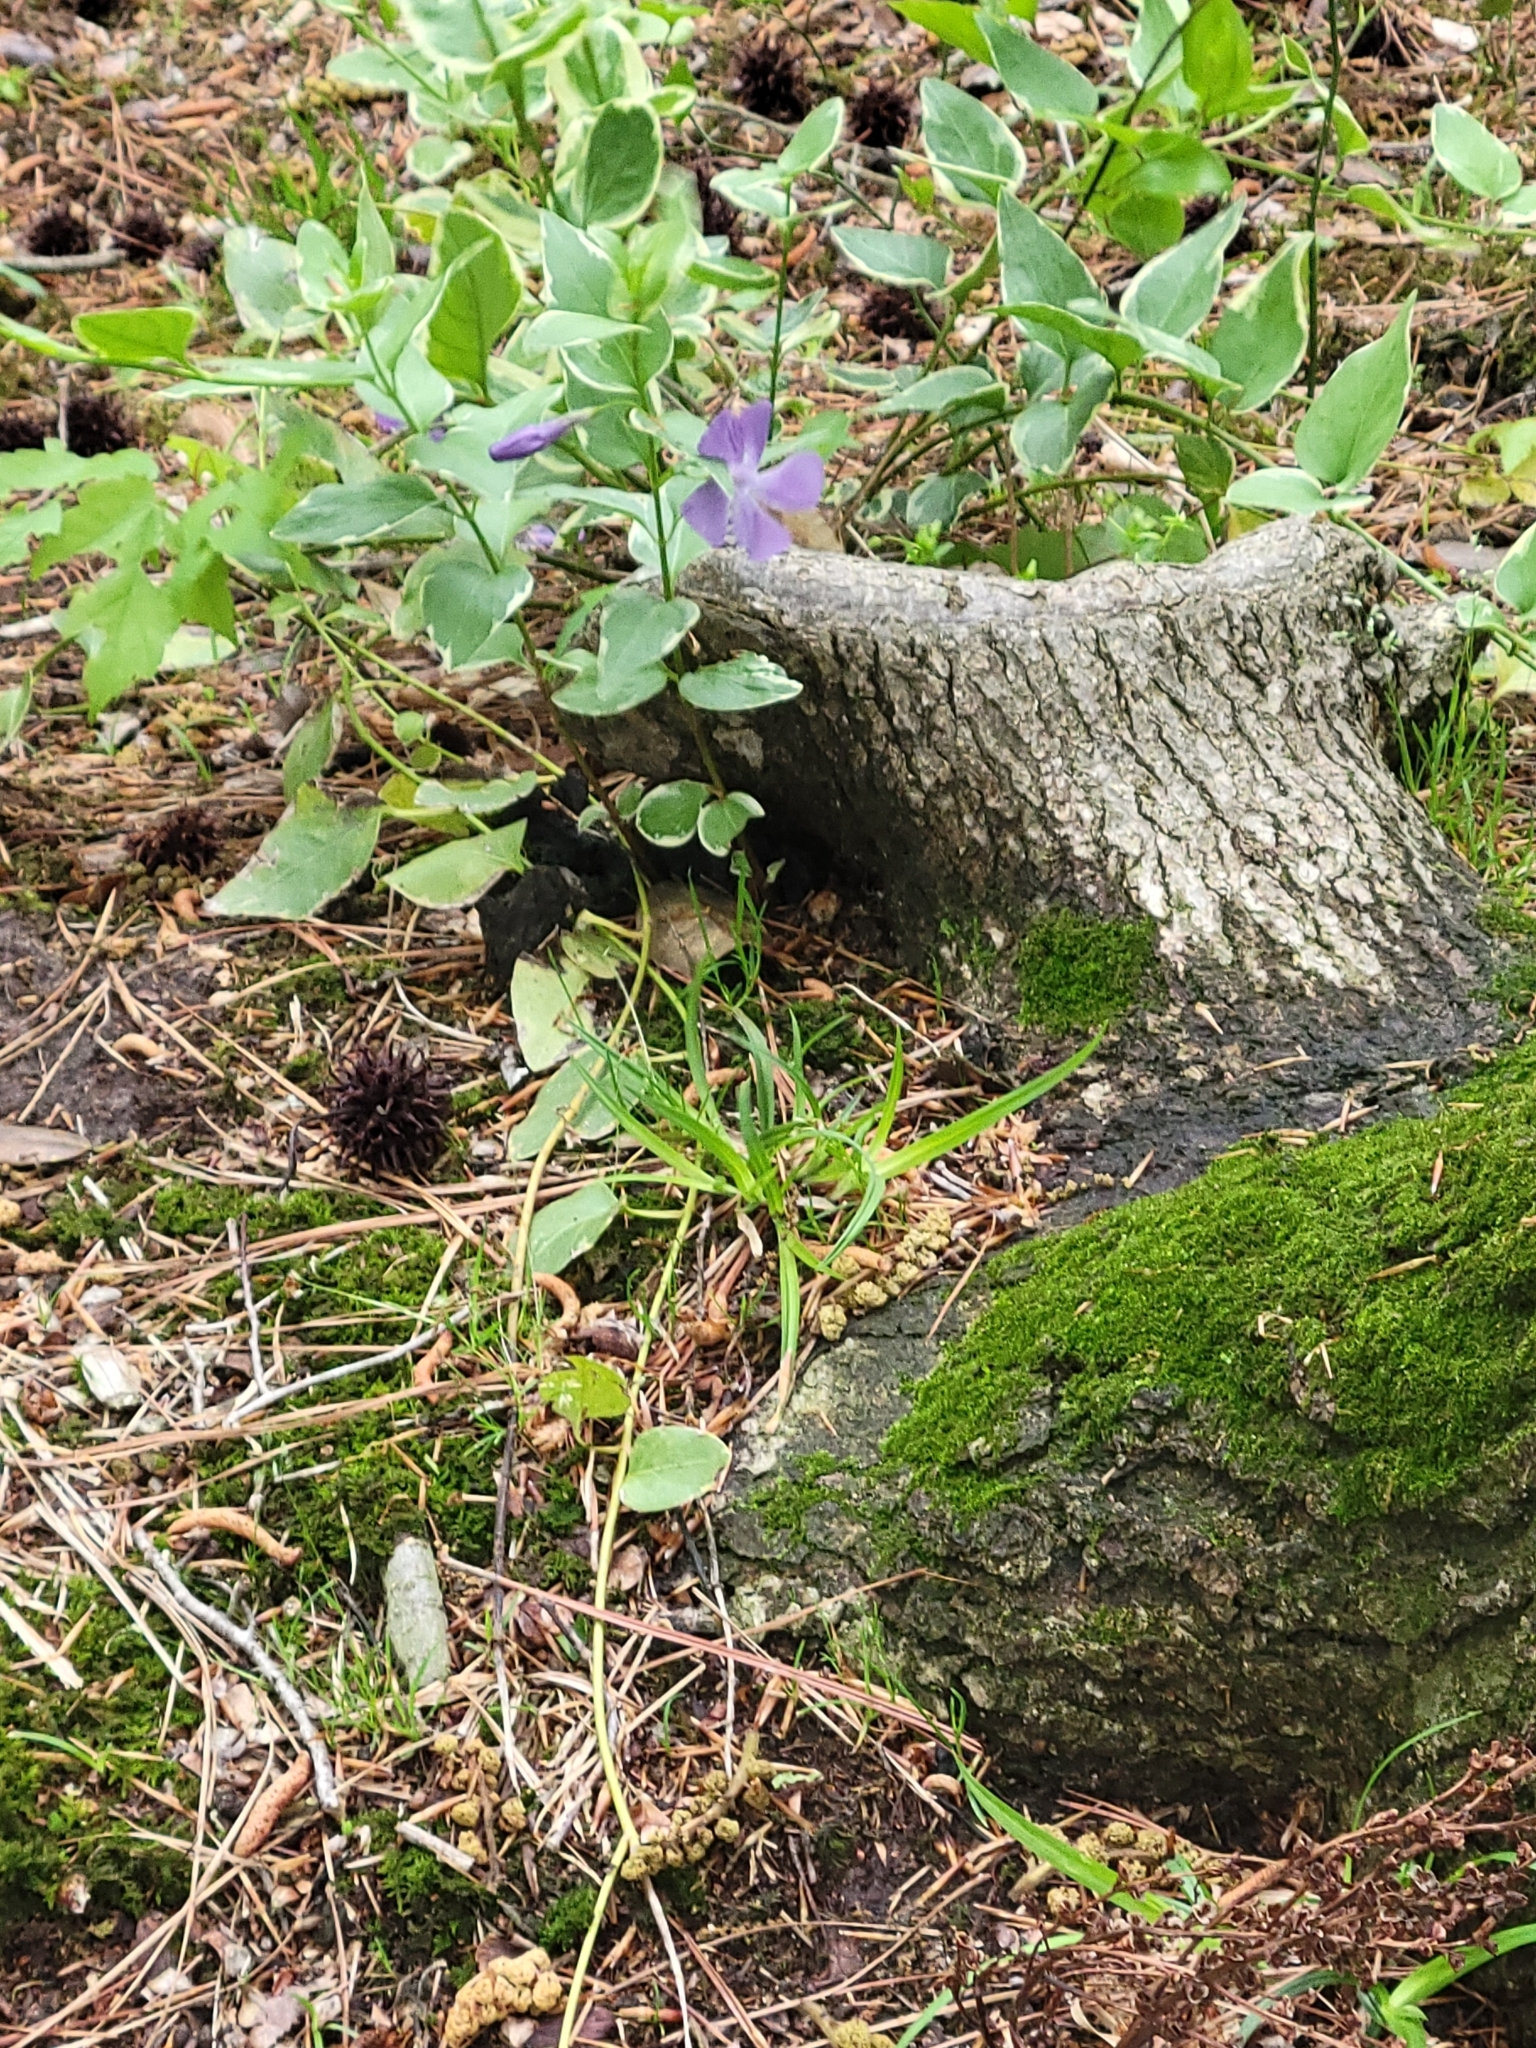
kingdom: Plantae
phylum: Tracheophyta
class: Magnoliopsida
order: Gentianales
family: Apocynaceae
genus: Vinca
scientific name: Vinca major
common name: Greater periwinkle
